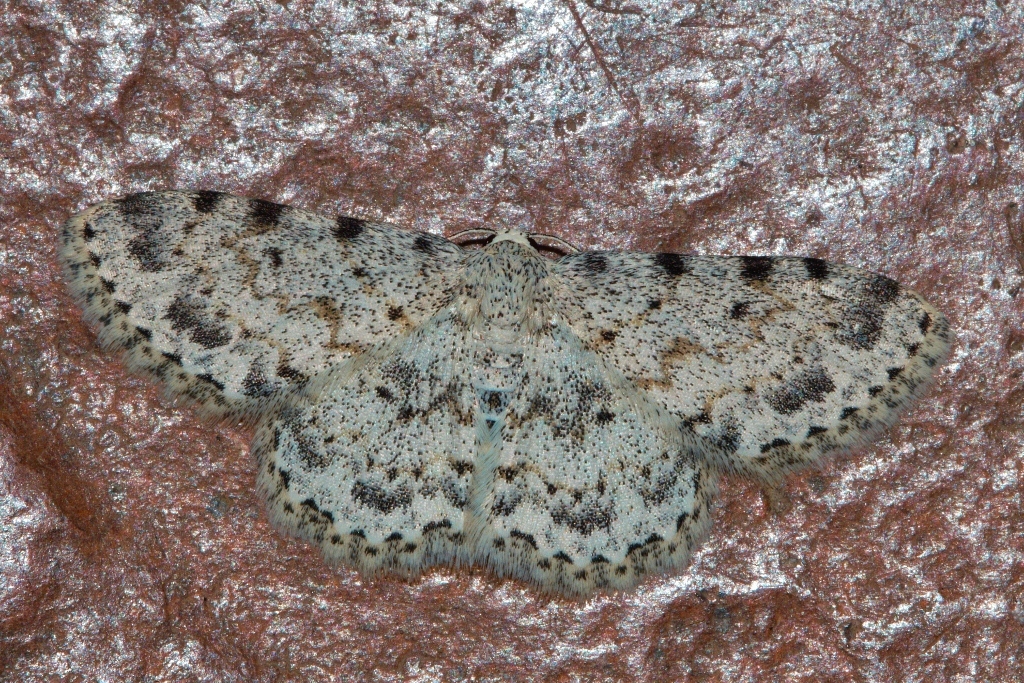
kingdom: Animalia
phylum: Arthropoda
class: Insecta
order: Lepidoptera
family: Geometridae
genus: Scopula
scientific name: Scopula nigrinotata
